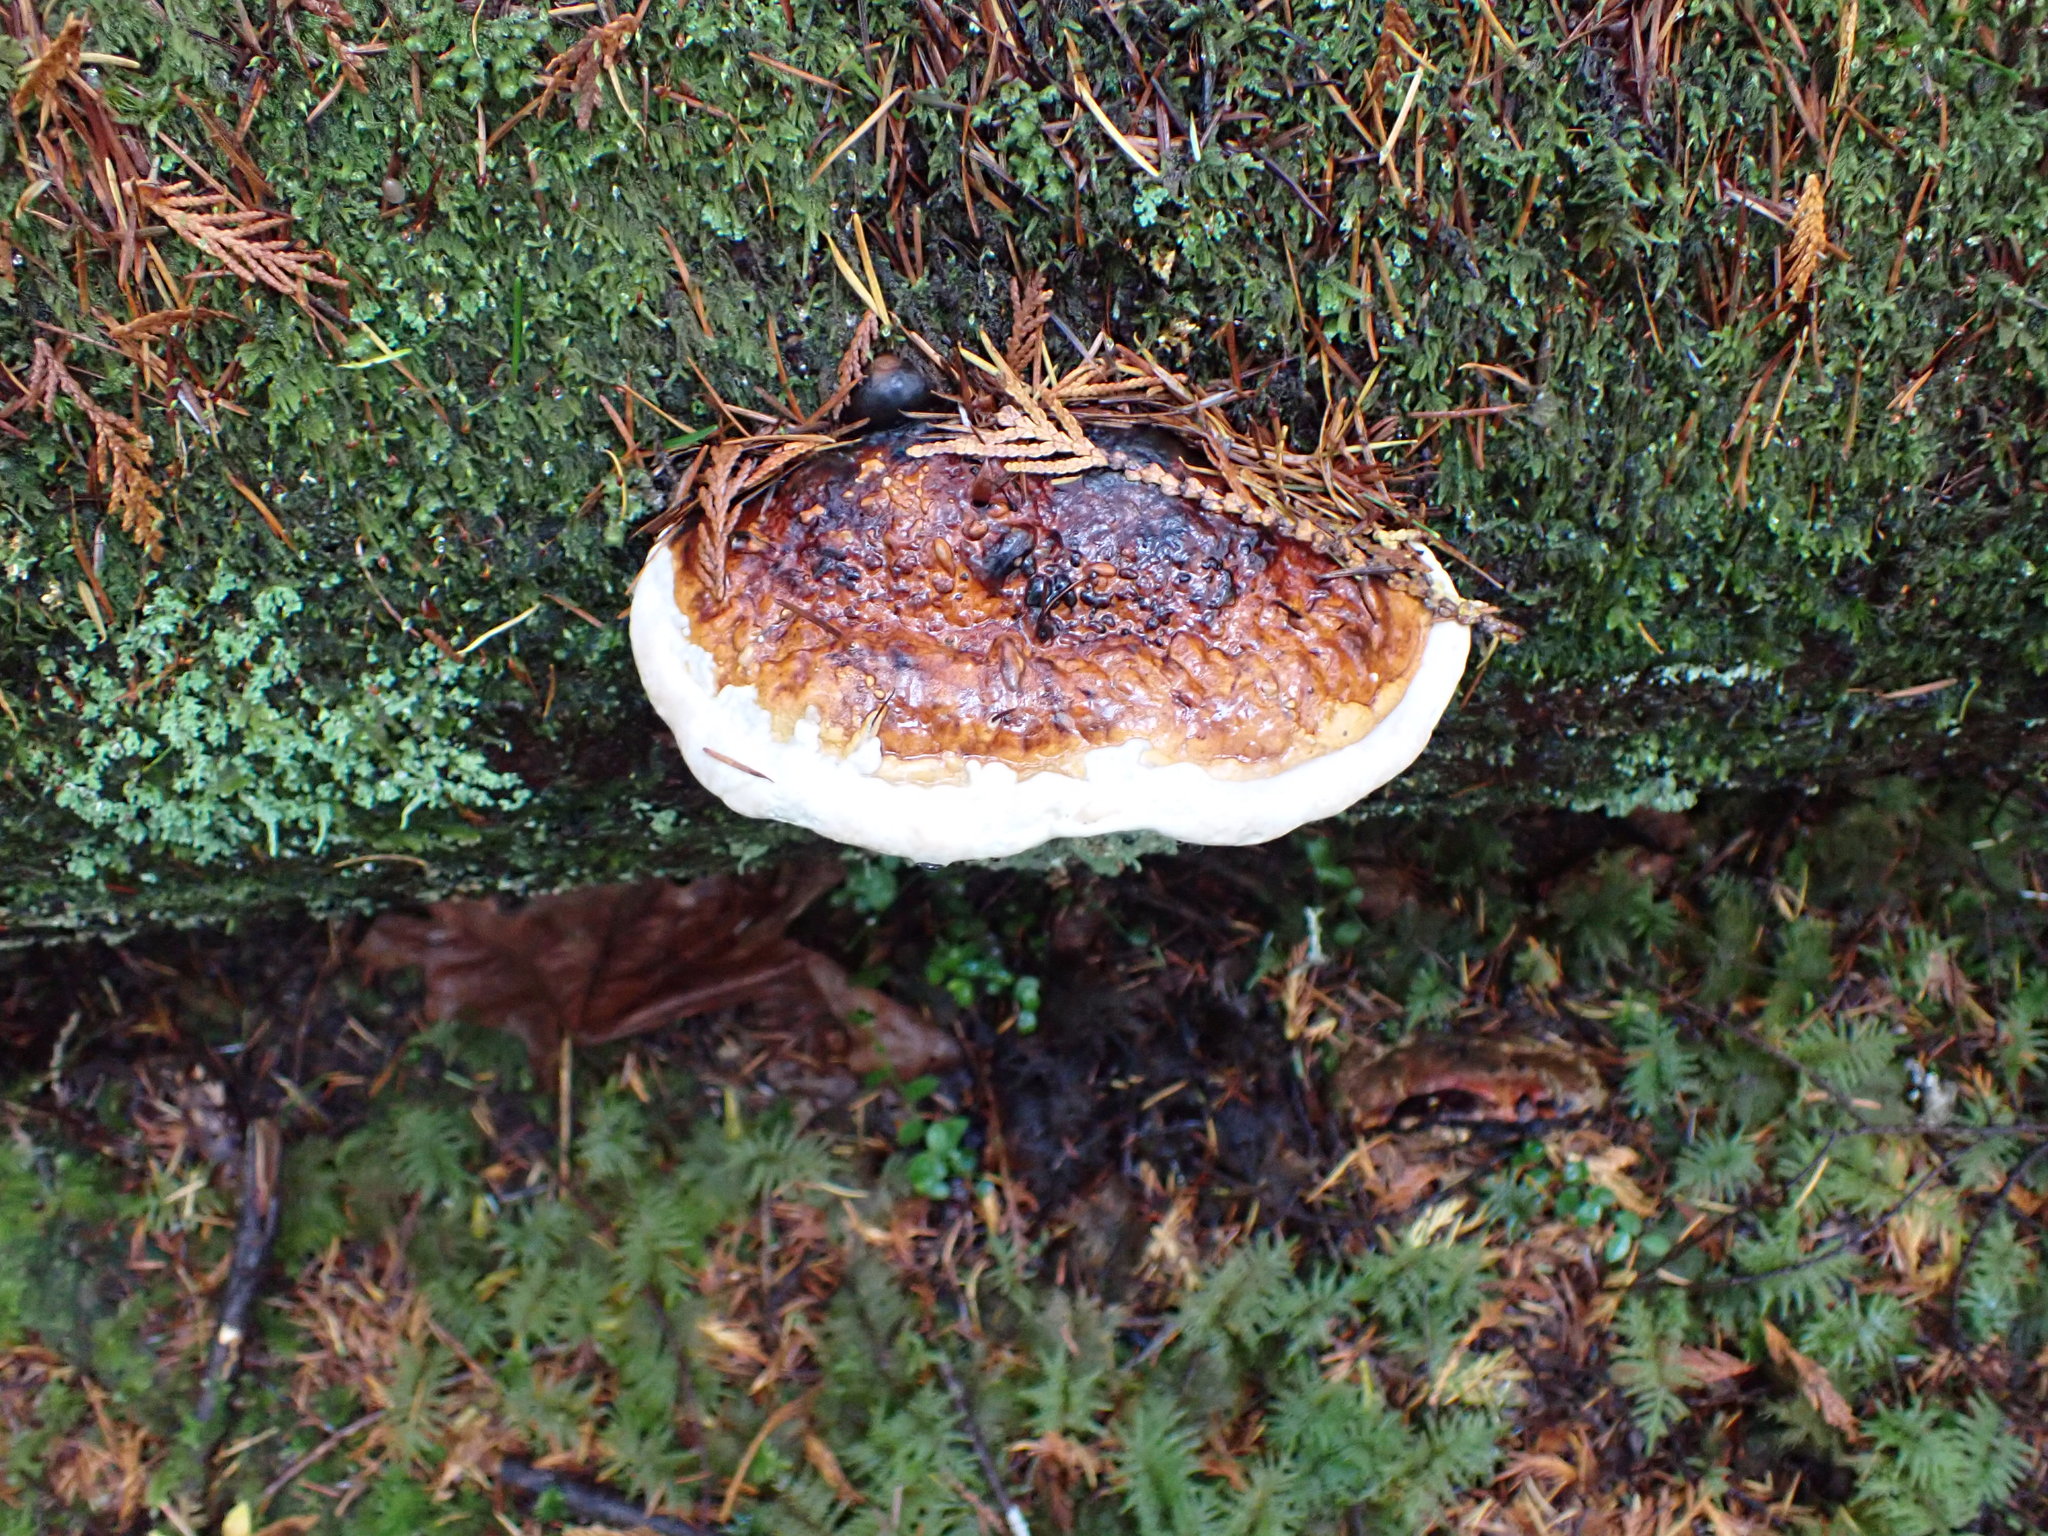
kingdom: Fungi
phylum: Basidiomycota
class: Agaricomycetes
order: Polyporales
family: Fomitopsidaceae
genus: Fomitopsis
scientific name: Fomitopsis mounceae
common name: Northern red belt
